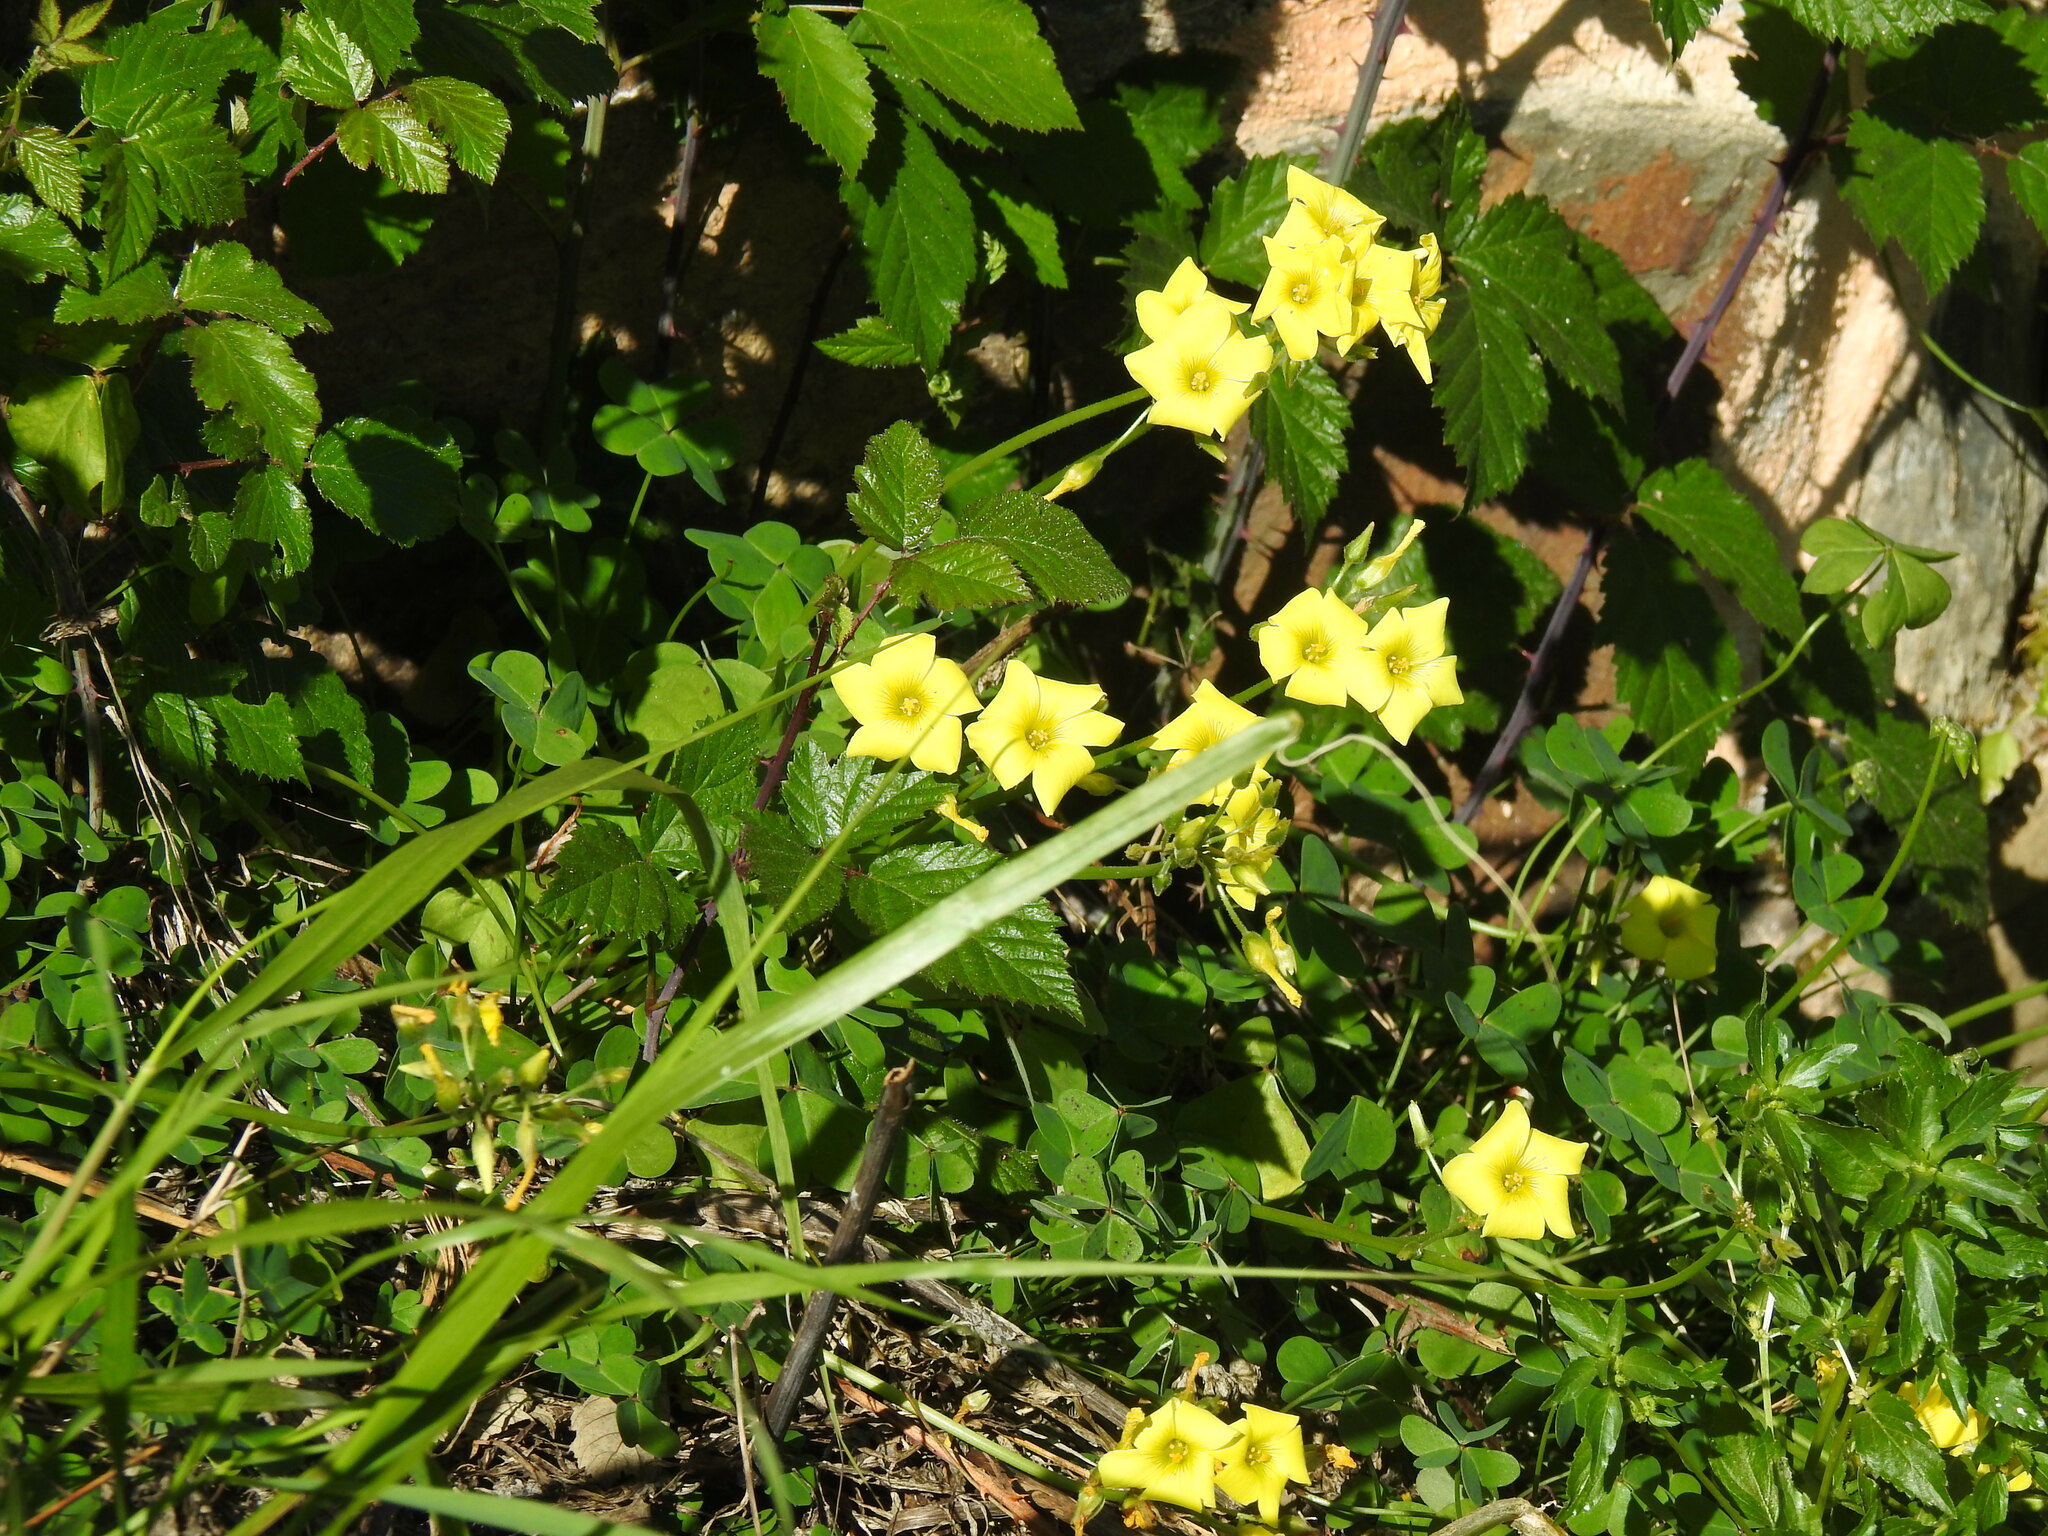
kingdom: Plantae
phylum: Tracheophyta
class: Magnoliopsida
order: Oxalidales
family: Oxalidaceae
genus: Oxalis
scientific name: Oxalis pes-caprae
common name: Bermuda-buttercup
